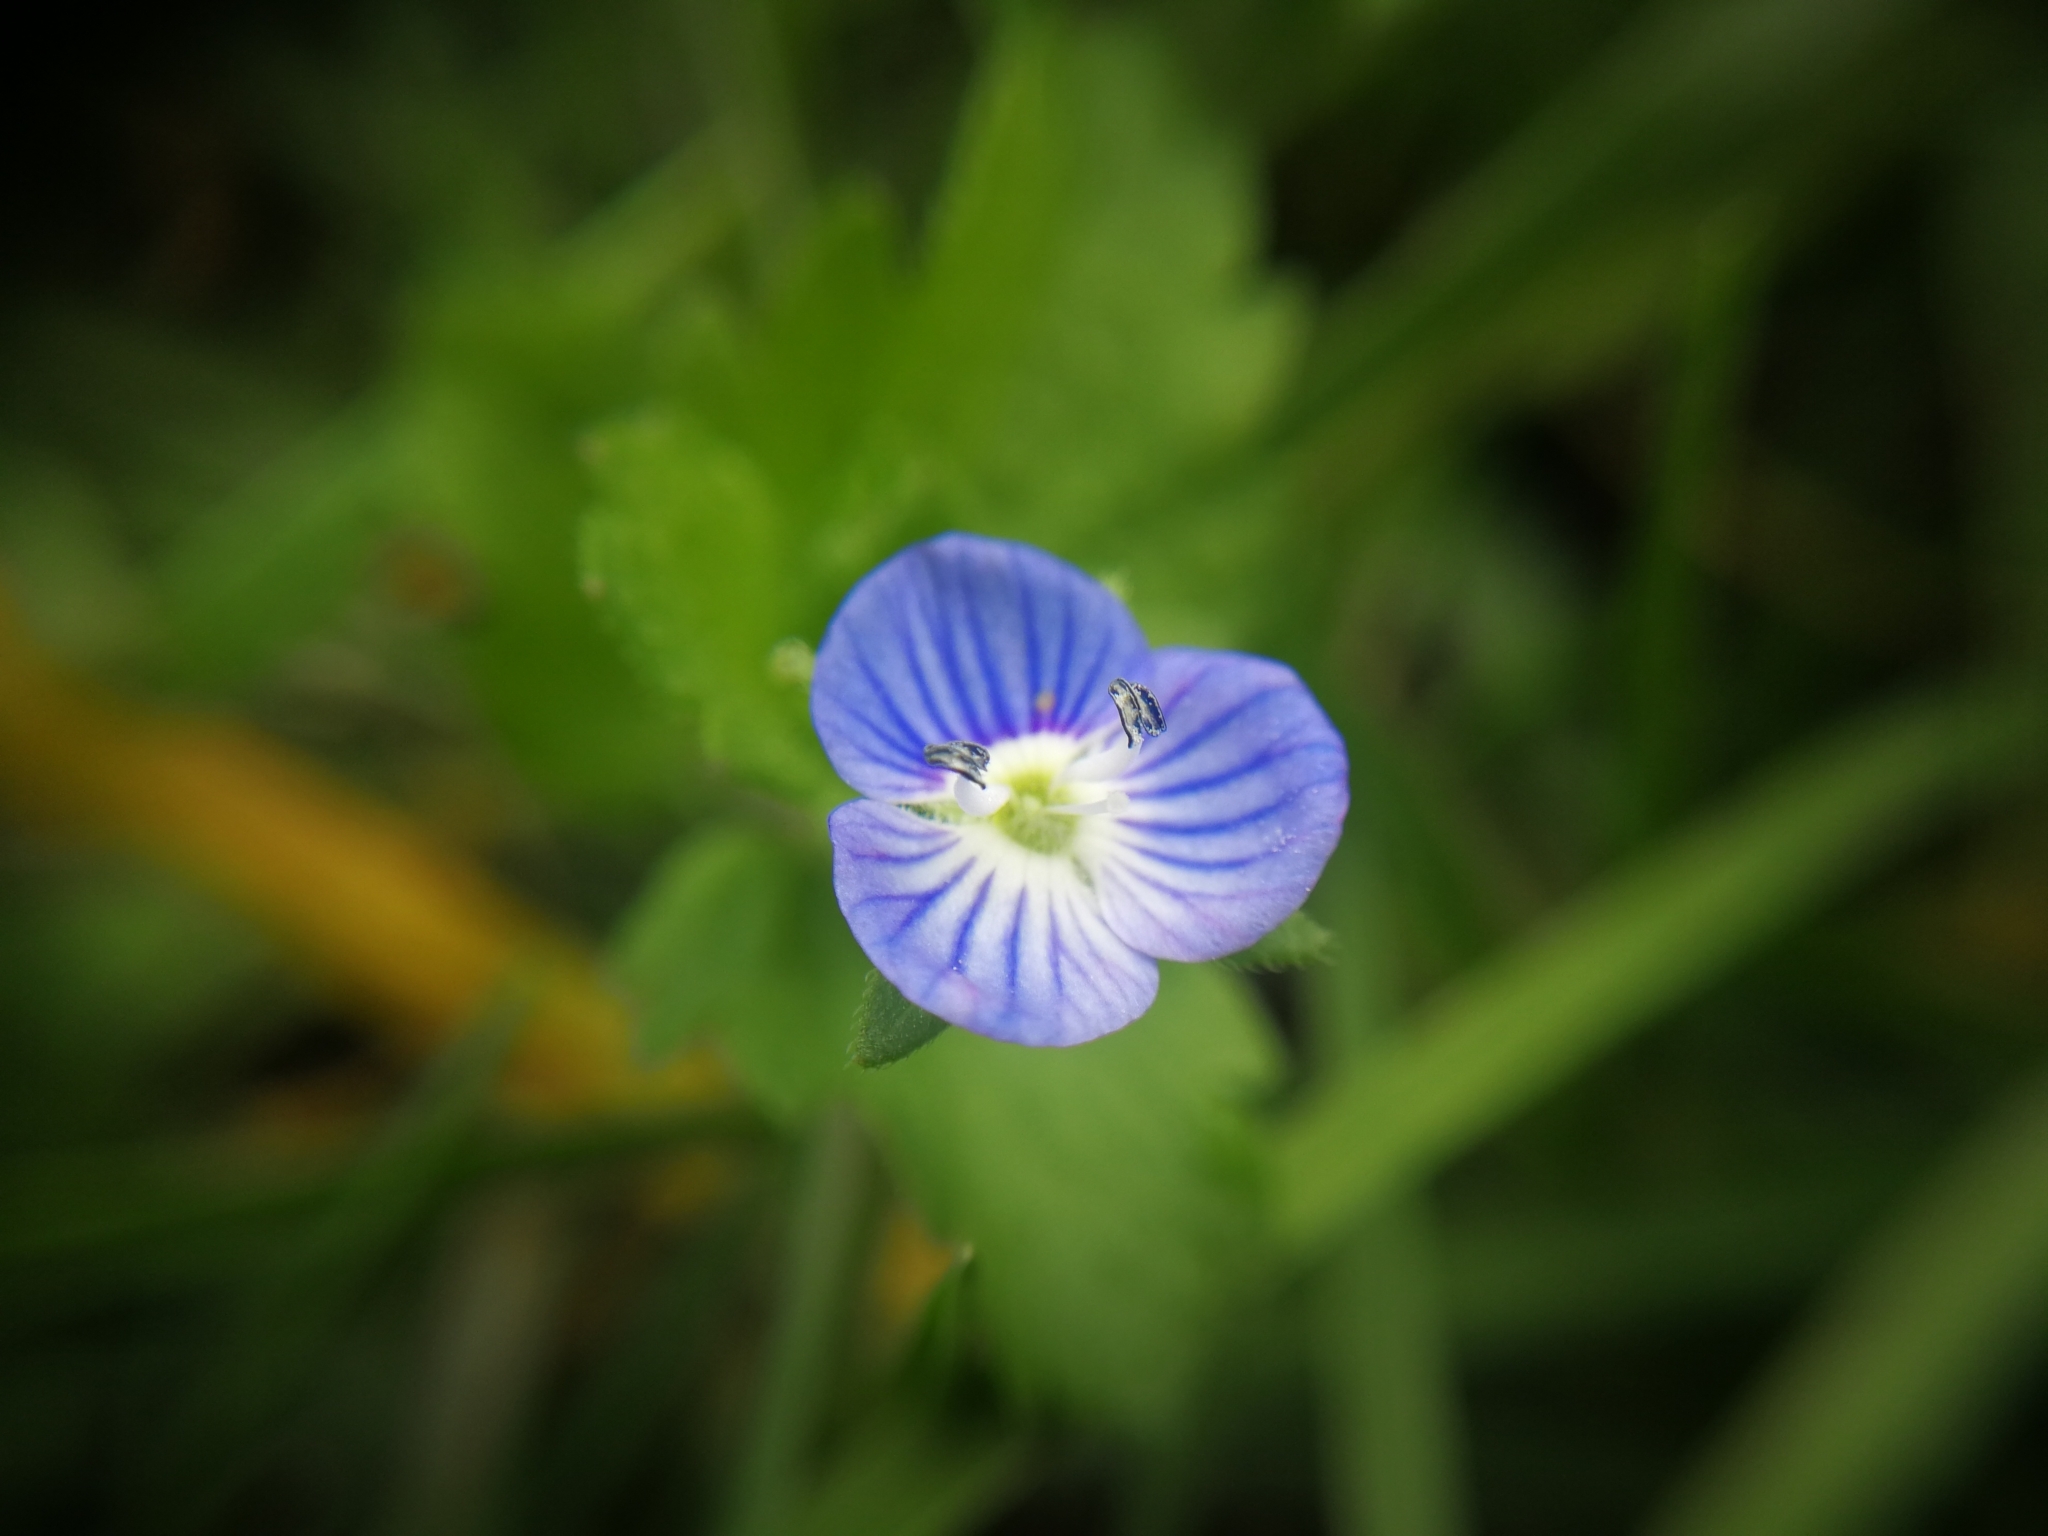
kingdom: Plantae
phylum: Tracheophyta
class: Magnoliopsida
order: Lamiales
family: Plantaginaceae
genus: Veronica
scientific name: Veronica persica
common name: Common field-speedwell
